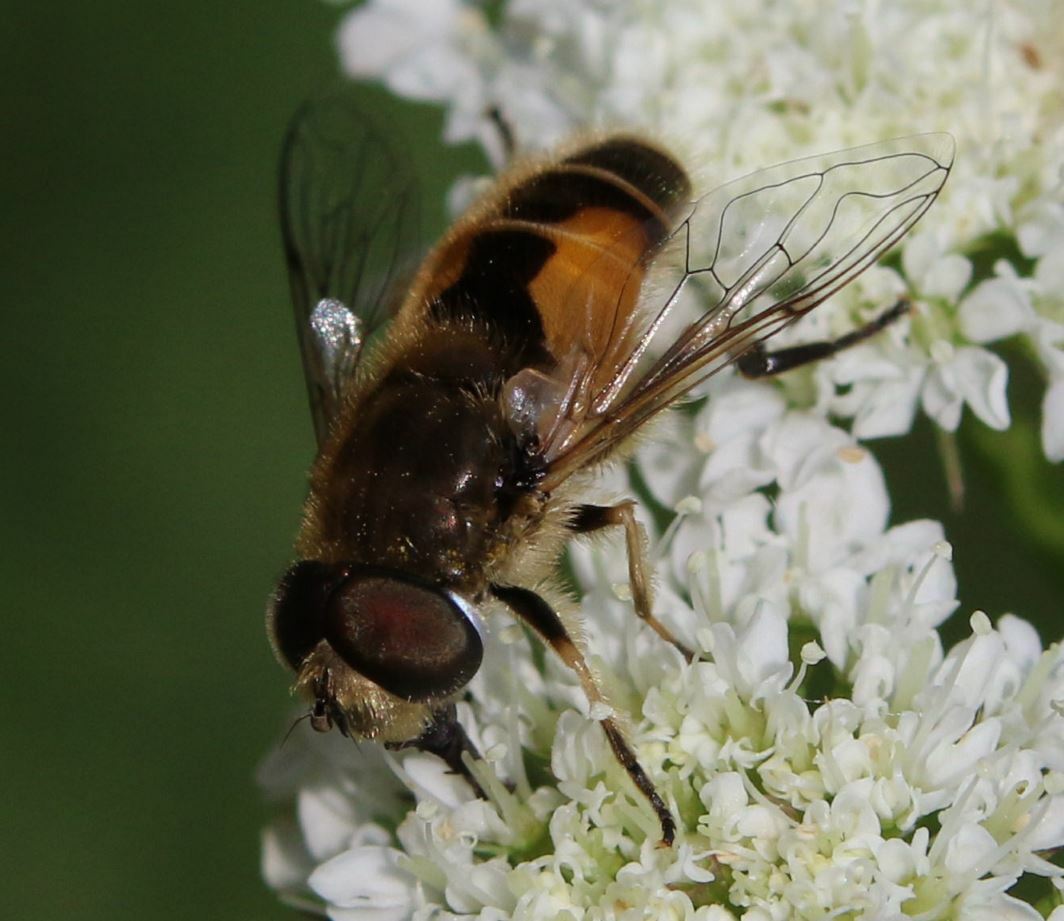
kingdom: Animalia
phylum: Arthropoda
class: Insecta
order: Diptera
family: Syrphidae
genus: Eristalis
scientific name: Eristalis arbustorum
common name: Hover fly
